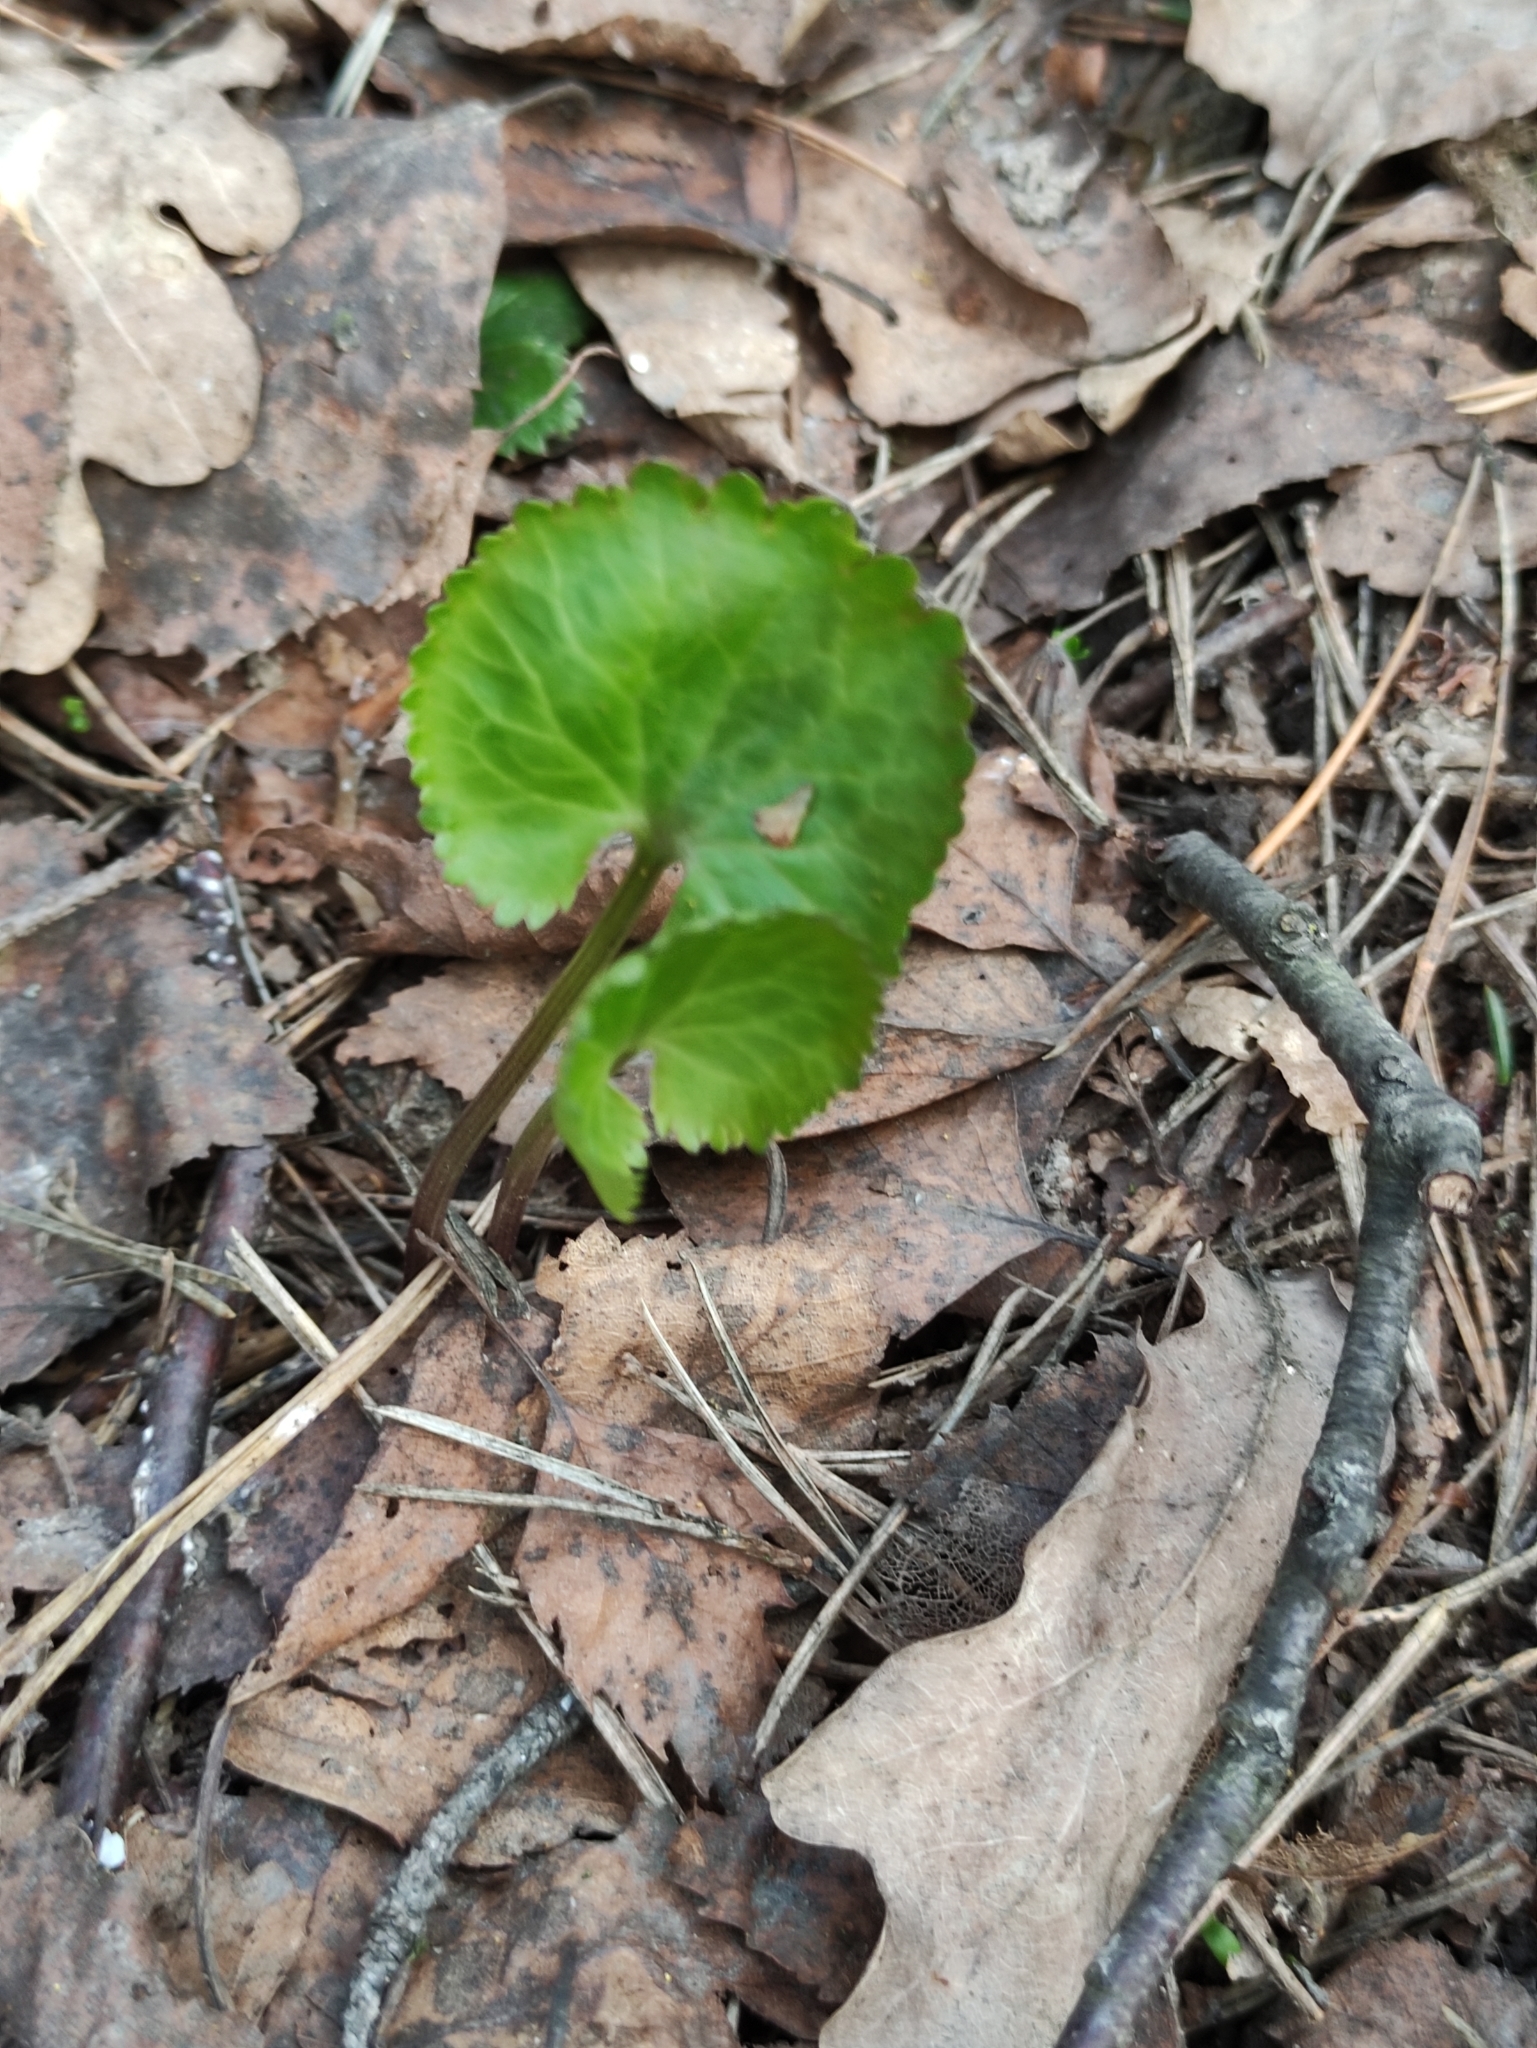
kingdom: Plantae
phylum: Tracheophyta
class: Magnoliopsida
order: Ranunculales
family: Ranunculaceae
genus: Ranunculus
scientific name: Ranunculus cassubicus
